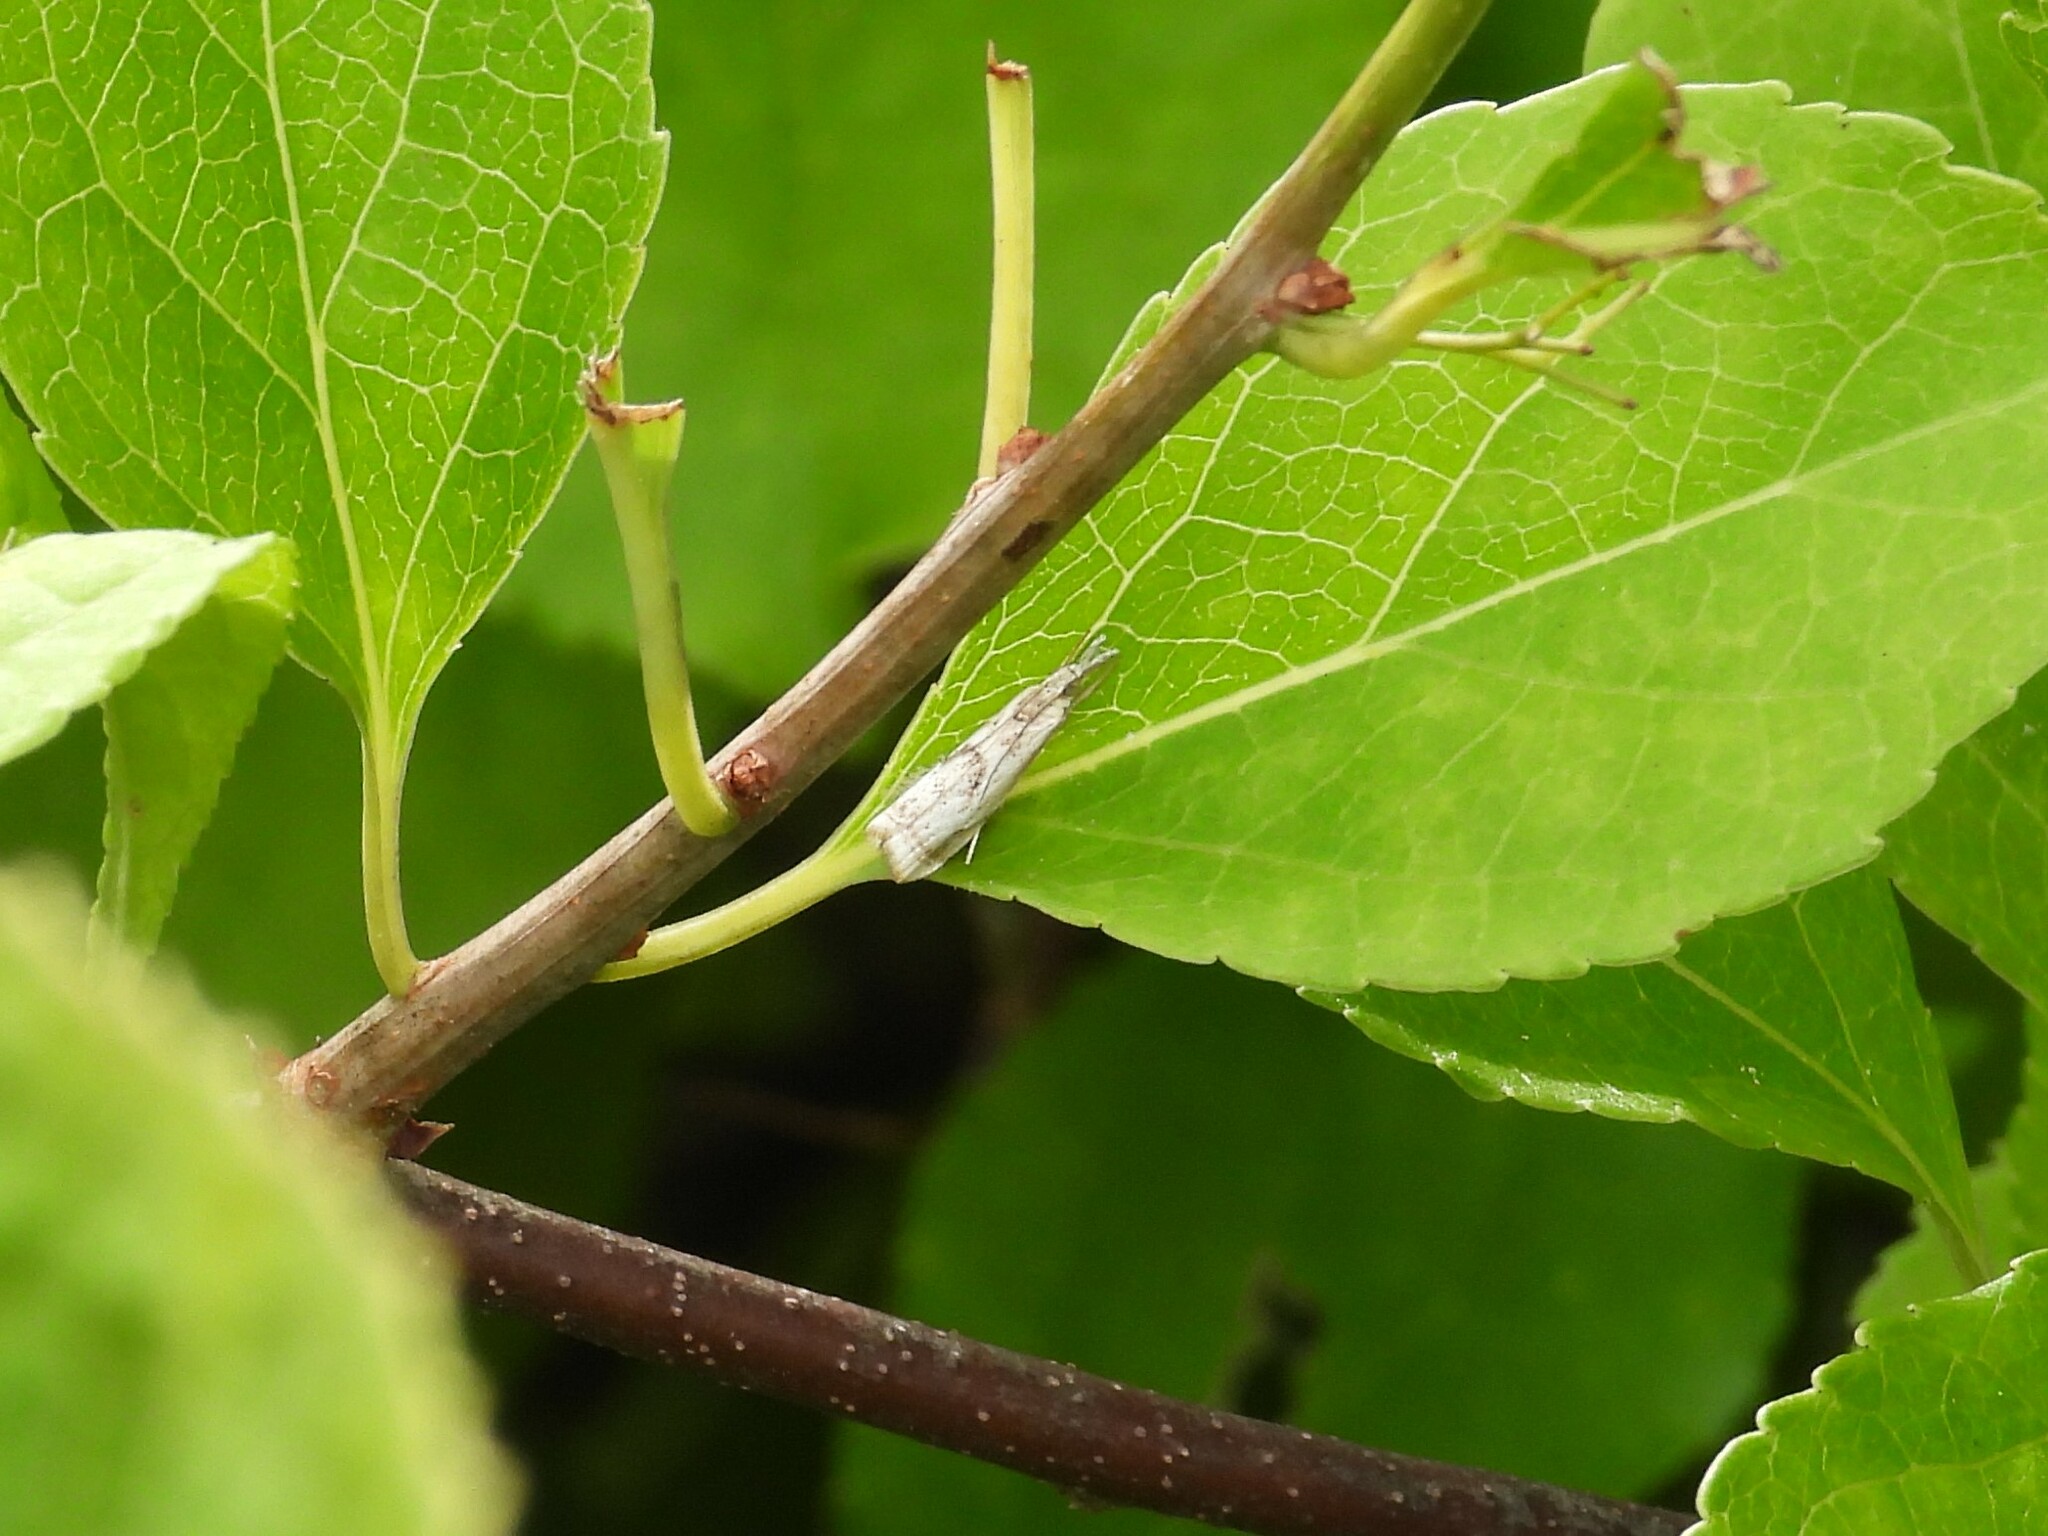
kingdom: Animalia
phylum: Arthropoda
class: Insecta
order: Lepidoptera
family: Crambidae
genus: Microcrambus
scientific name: Microcrambus elegans
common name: Elegant grass-veneer
